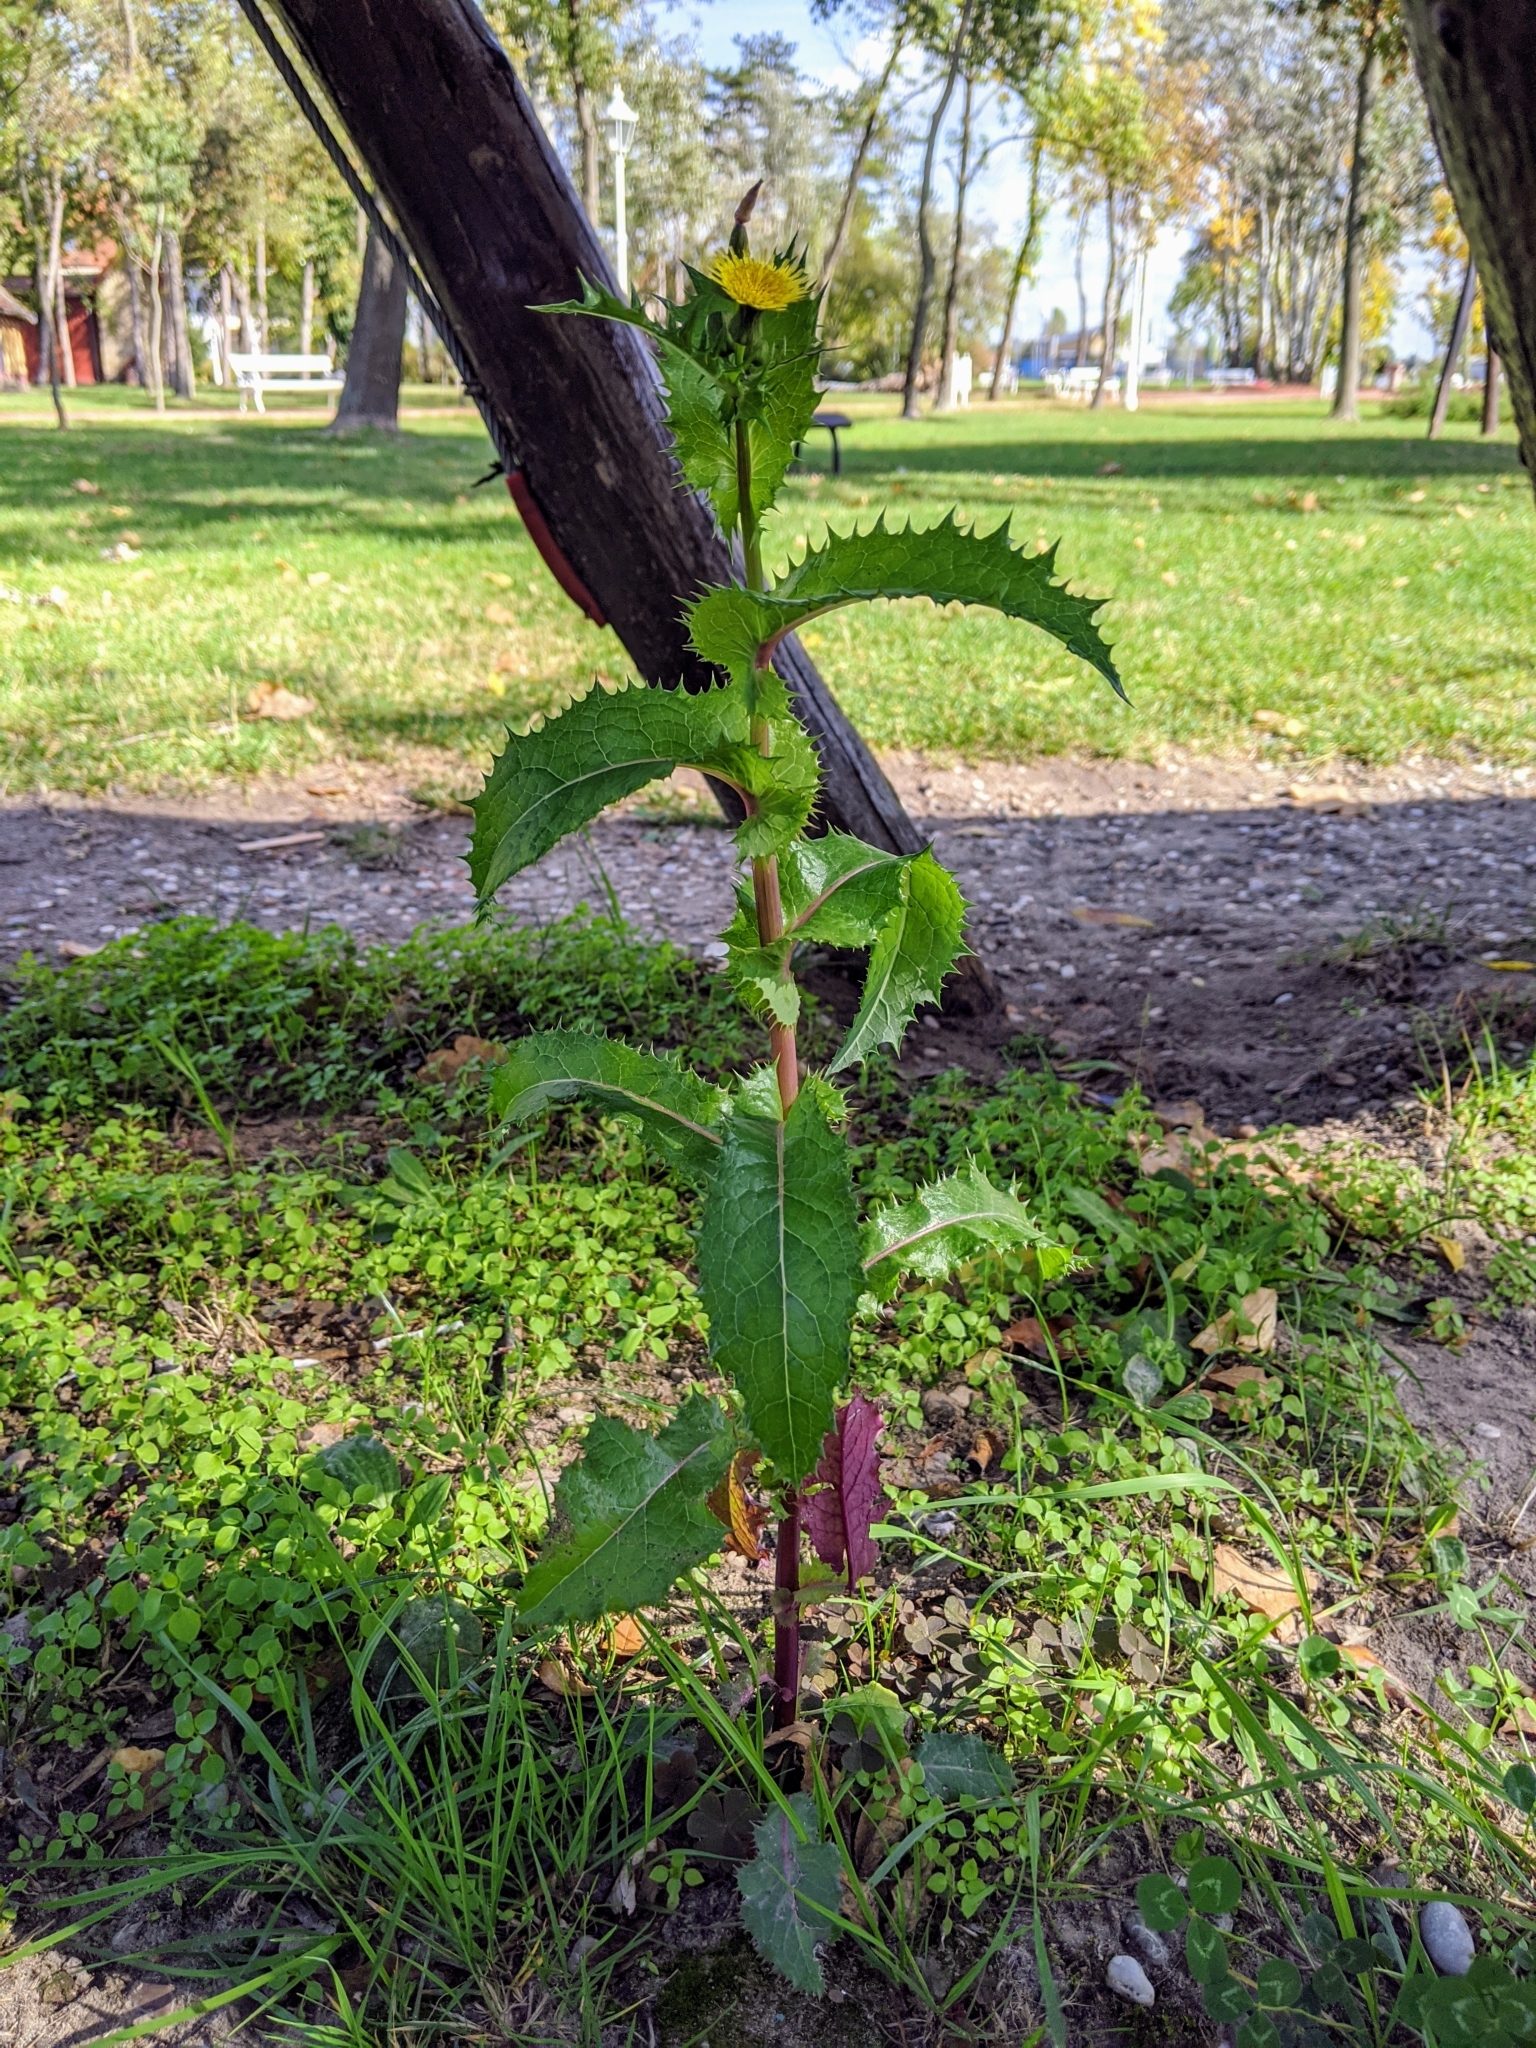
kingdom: Plantae
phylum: Tracheophyta
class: Magnoliopsida
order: Asterales
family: Asteraceae
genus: Sonchus
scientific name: Sonchus asper
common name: Prickly sow-thistle
